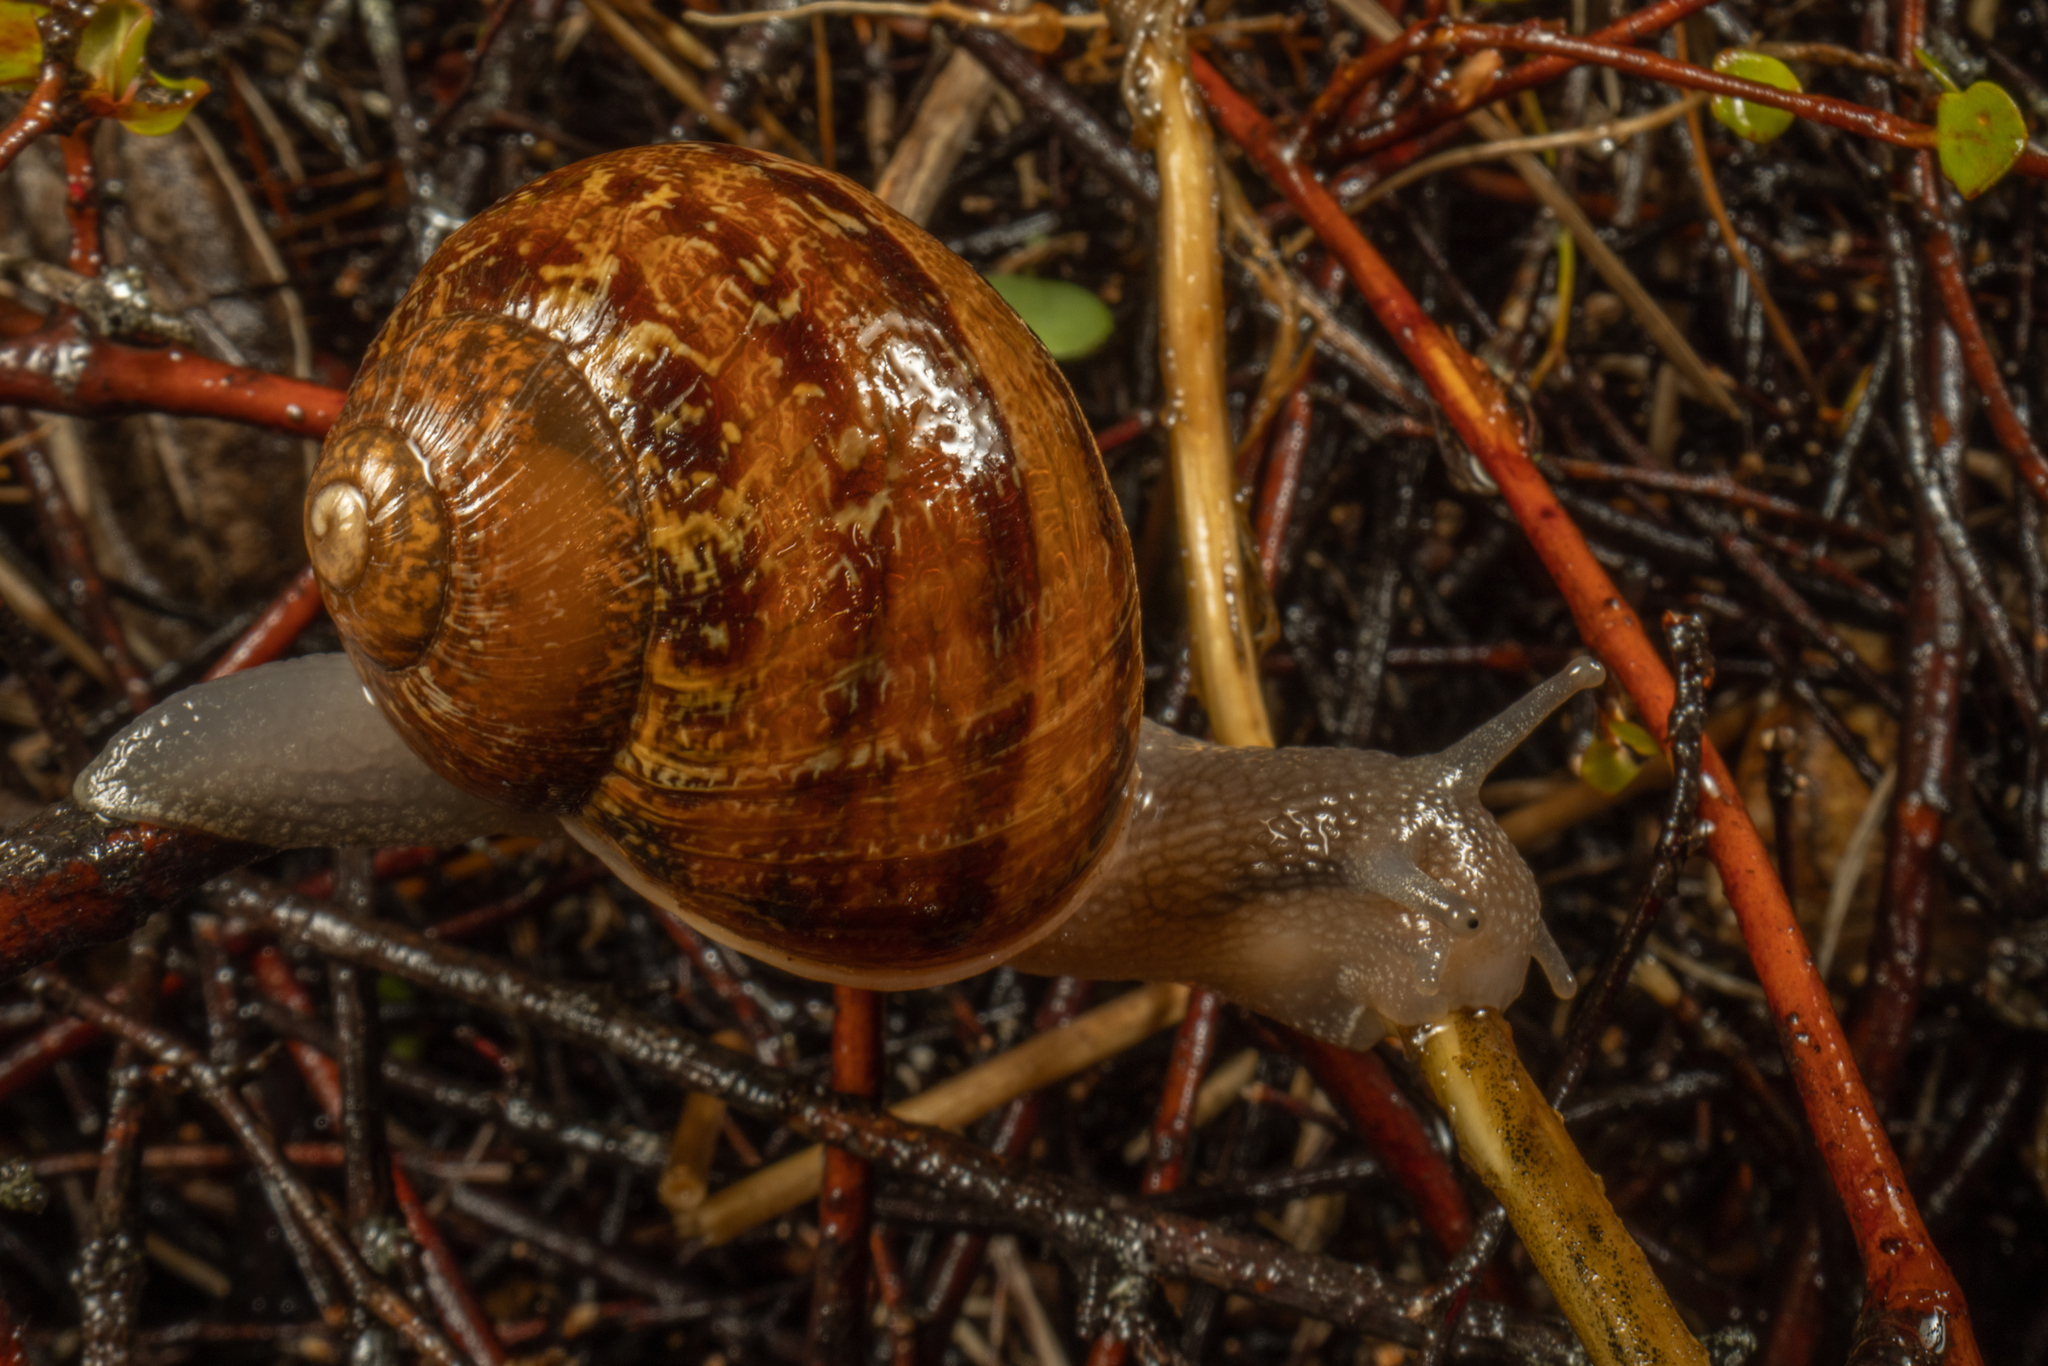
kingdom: Animalia
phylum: Mollusca
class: Gastropoda
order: Stylommatophora
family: Helicidae
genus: Cornu
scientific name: Cornu aspersum
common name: Brown garden snail
